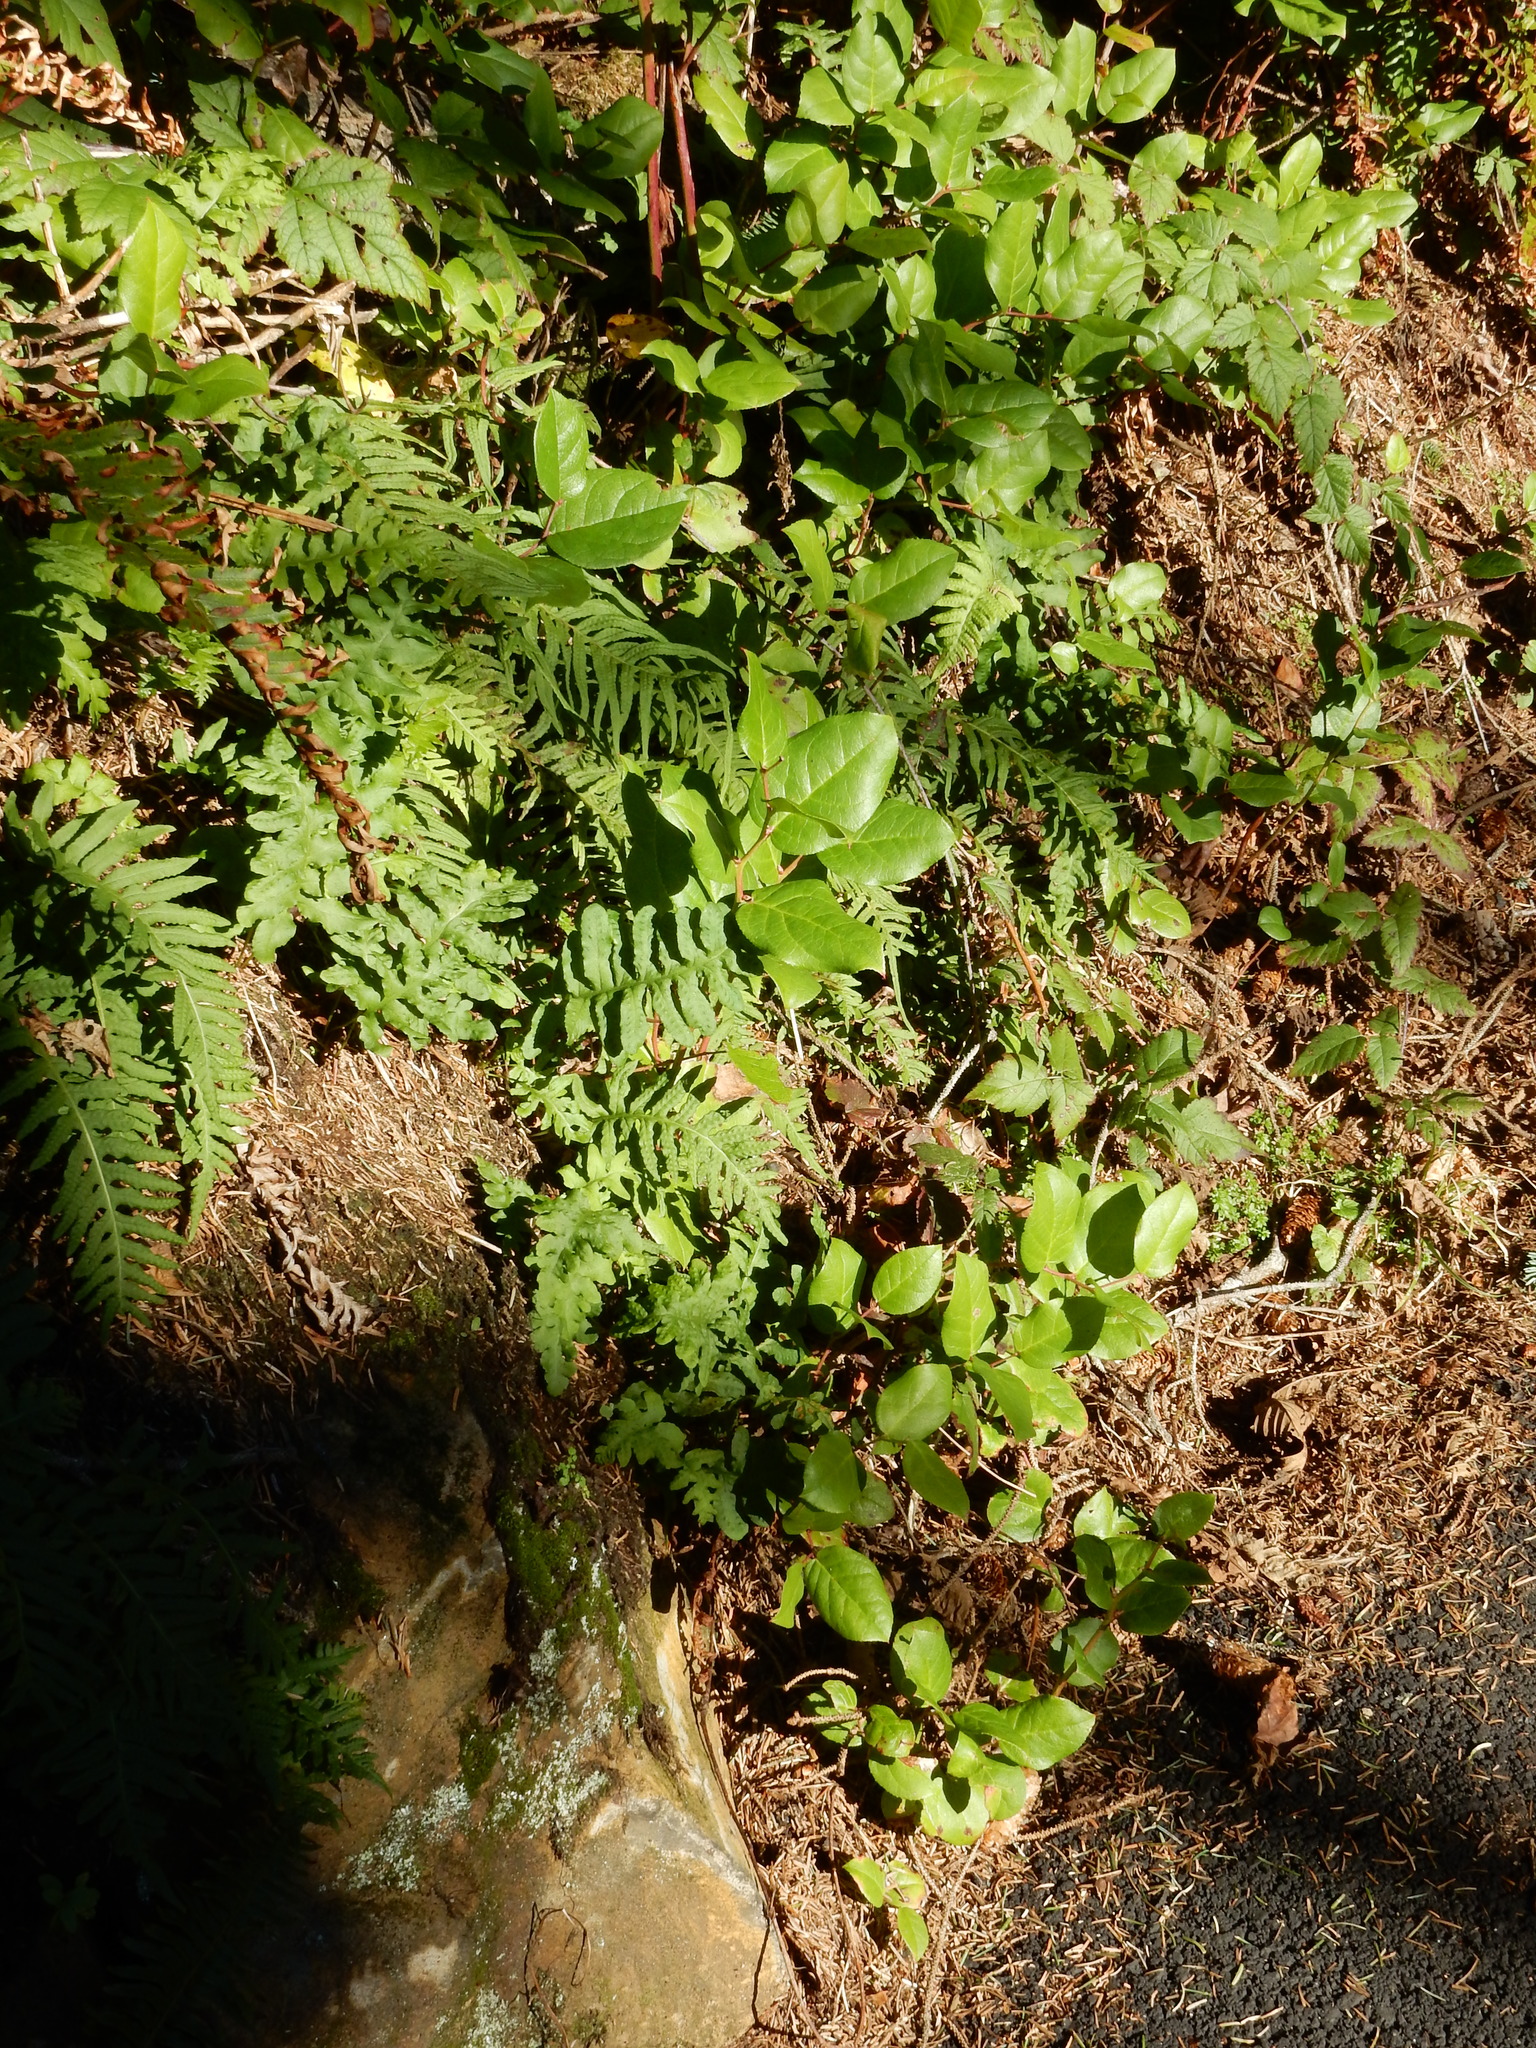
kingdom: Plantae
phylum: Tracheophyta
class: Polypodiopsida
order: Polypodiales
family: Polypodiaceae
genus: Polypodium
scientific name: Polypodium calirhiza
